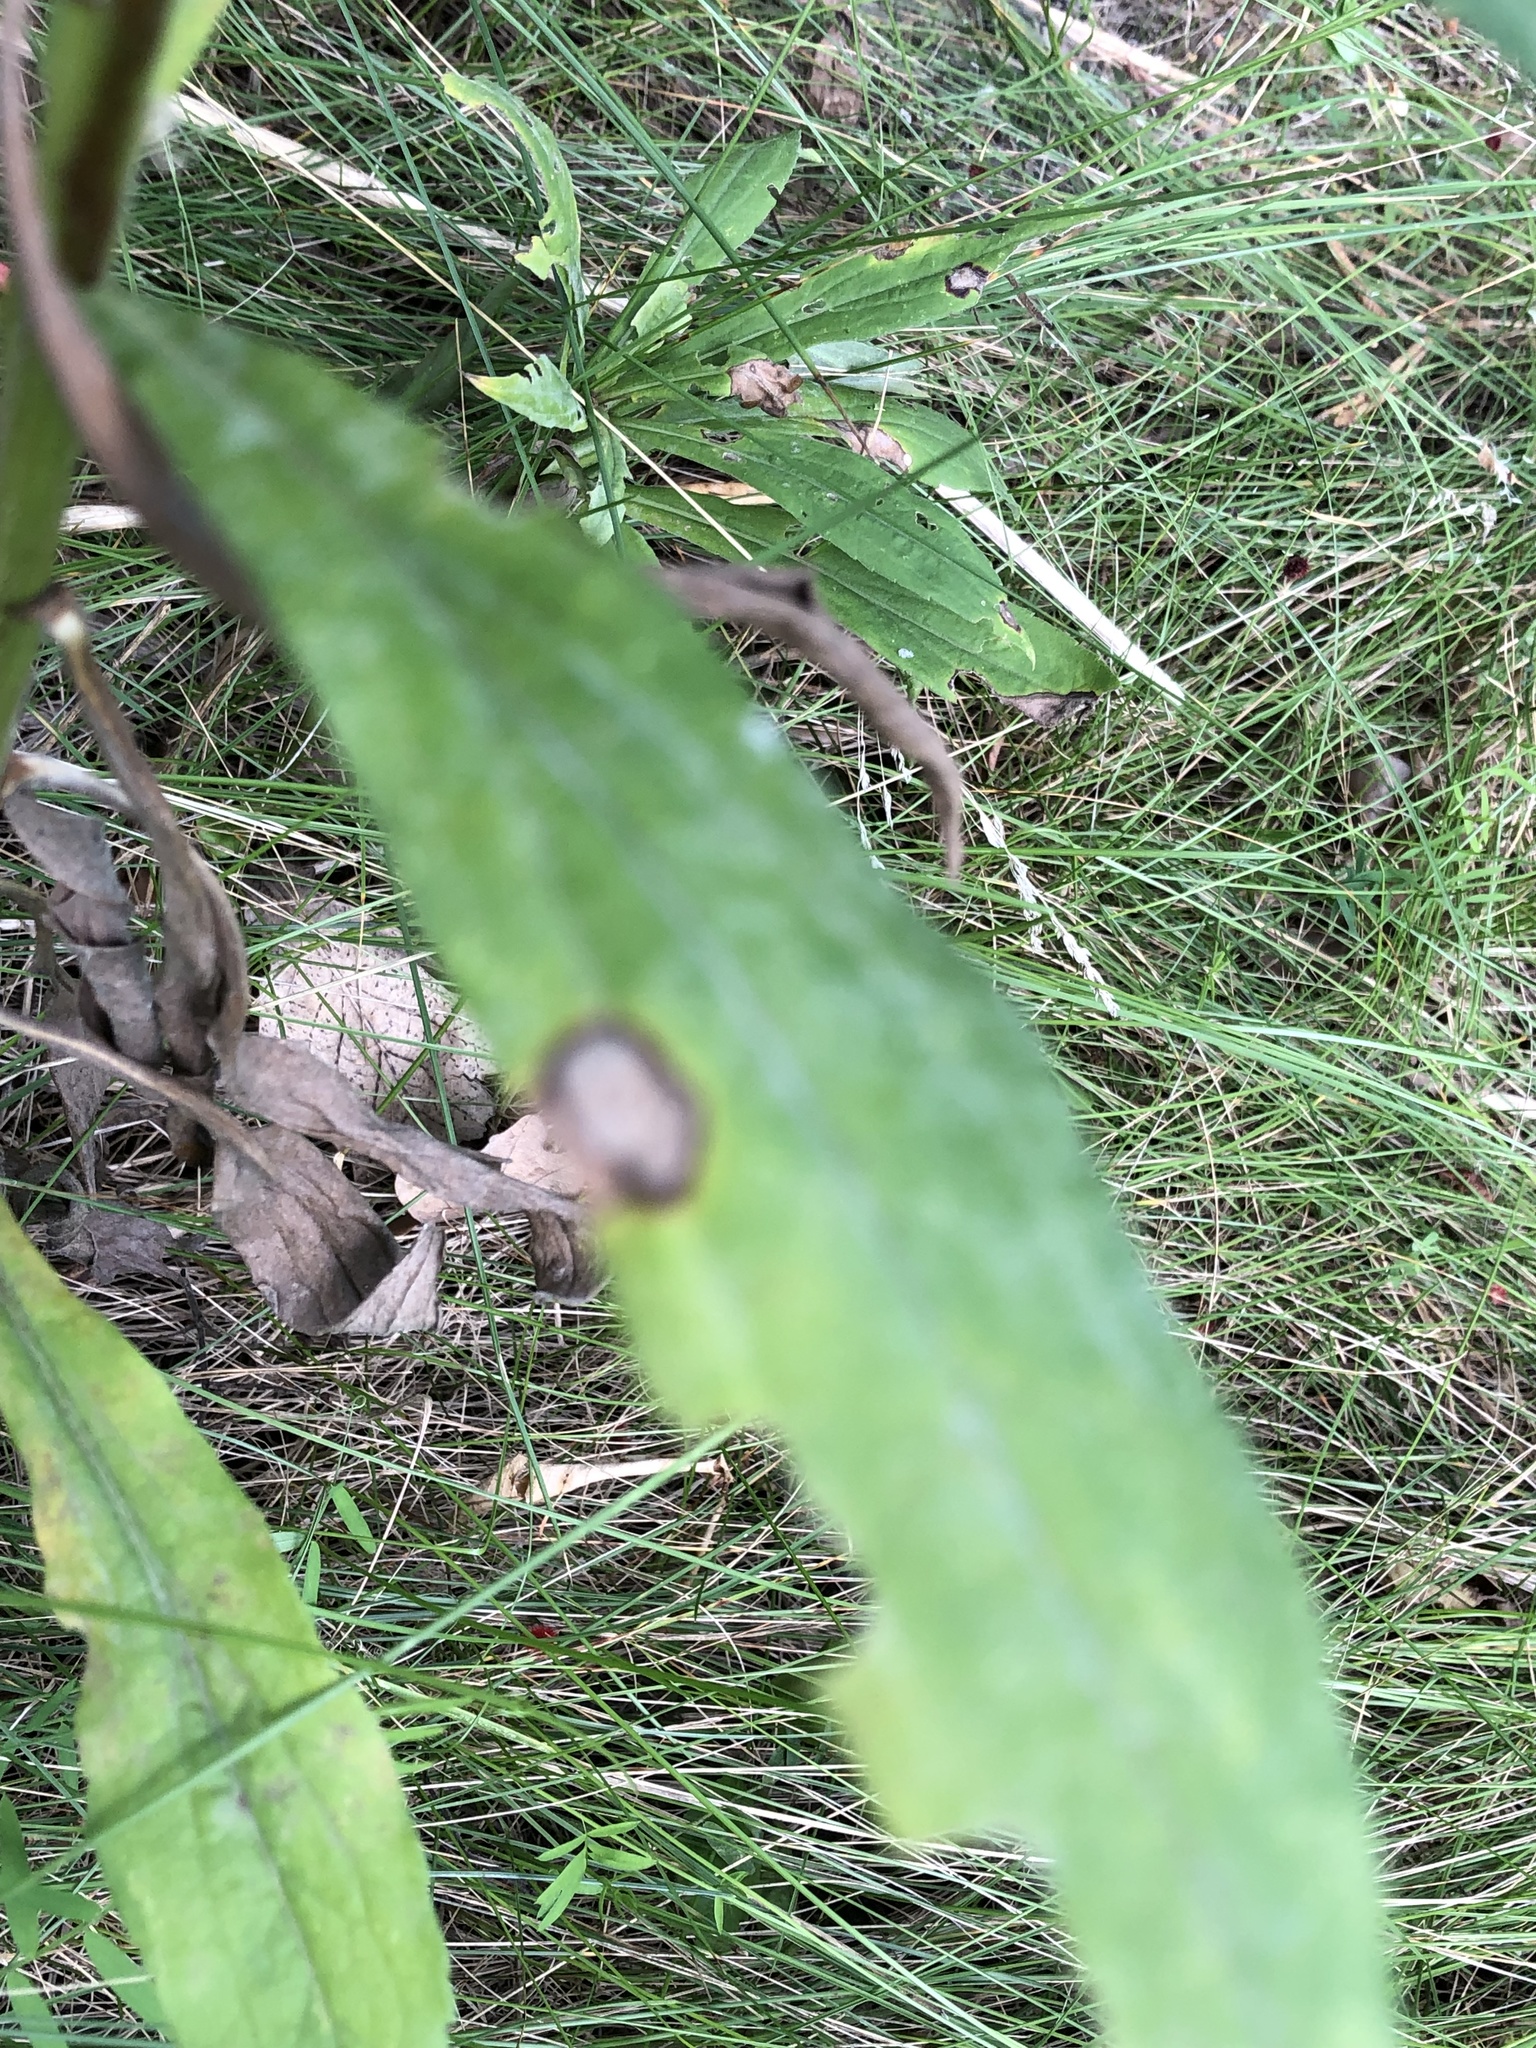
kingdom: Animalia
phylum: Arthropoda
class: Insecta
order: Diptera
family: Cecidomyiidae
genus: Asteromyia
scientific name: Asteromyia carbonifera
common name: Carbonifera goldenrod gall midge
